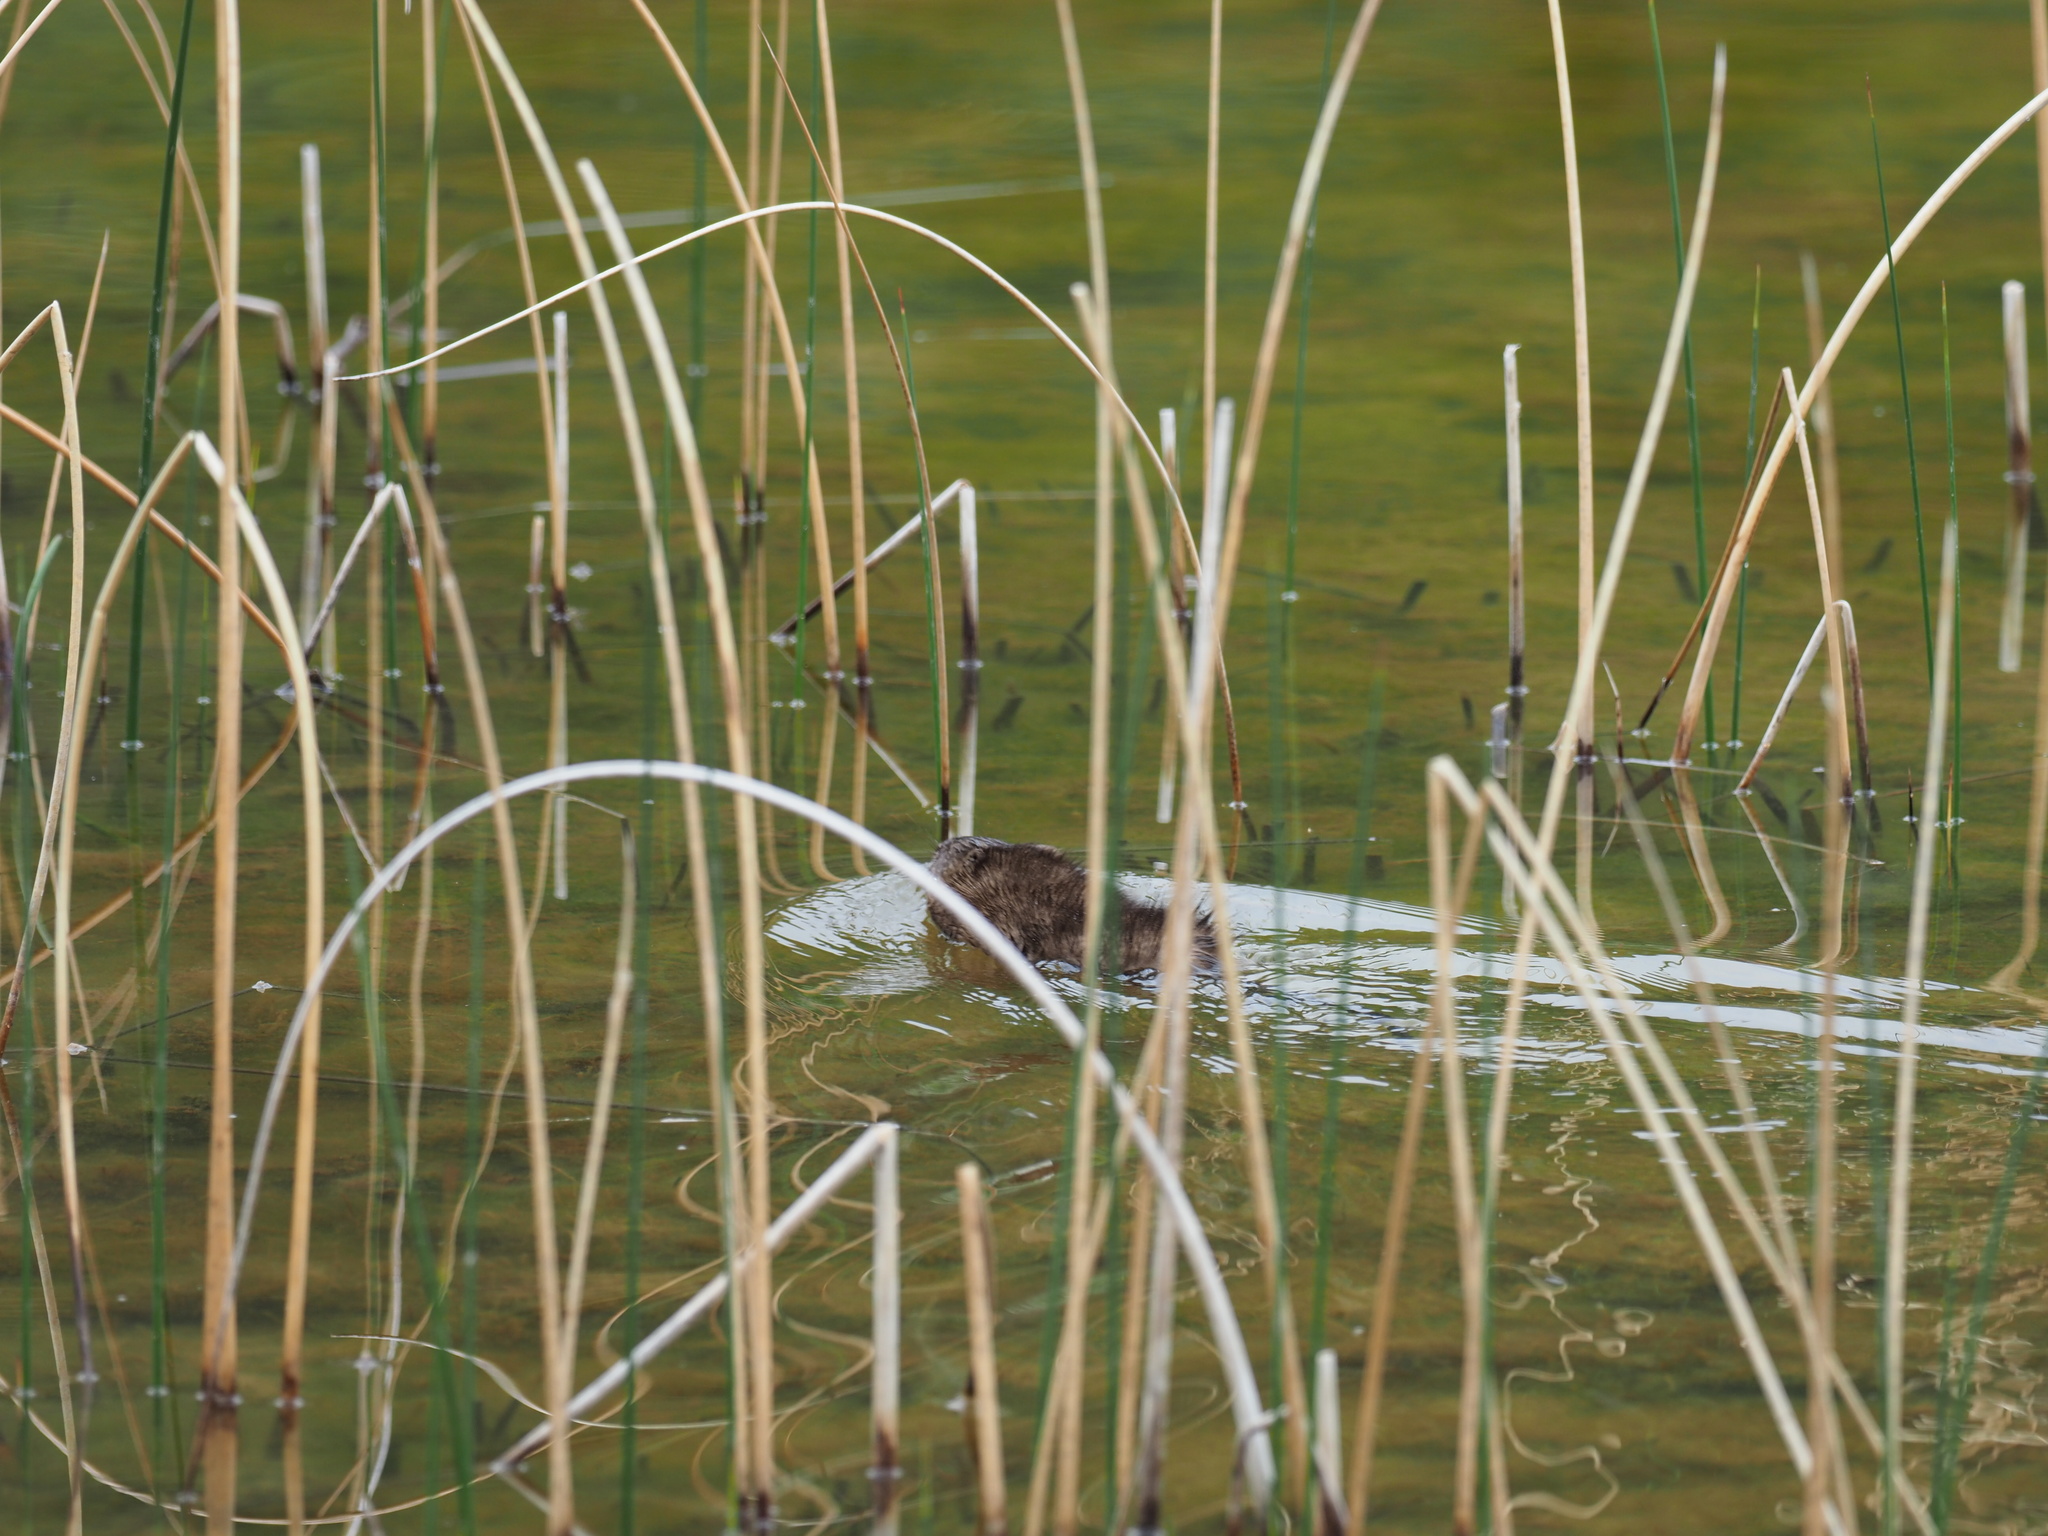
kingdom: Animalia
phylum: Chordata
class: Mammalia
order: Rodentia
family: Cricetidae
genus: Ondatra
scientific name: Ondatra zibethicus
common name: Muskrat
